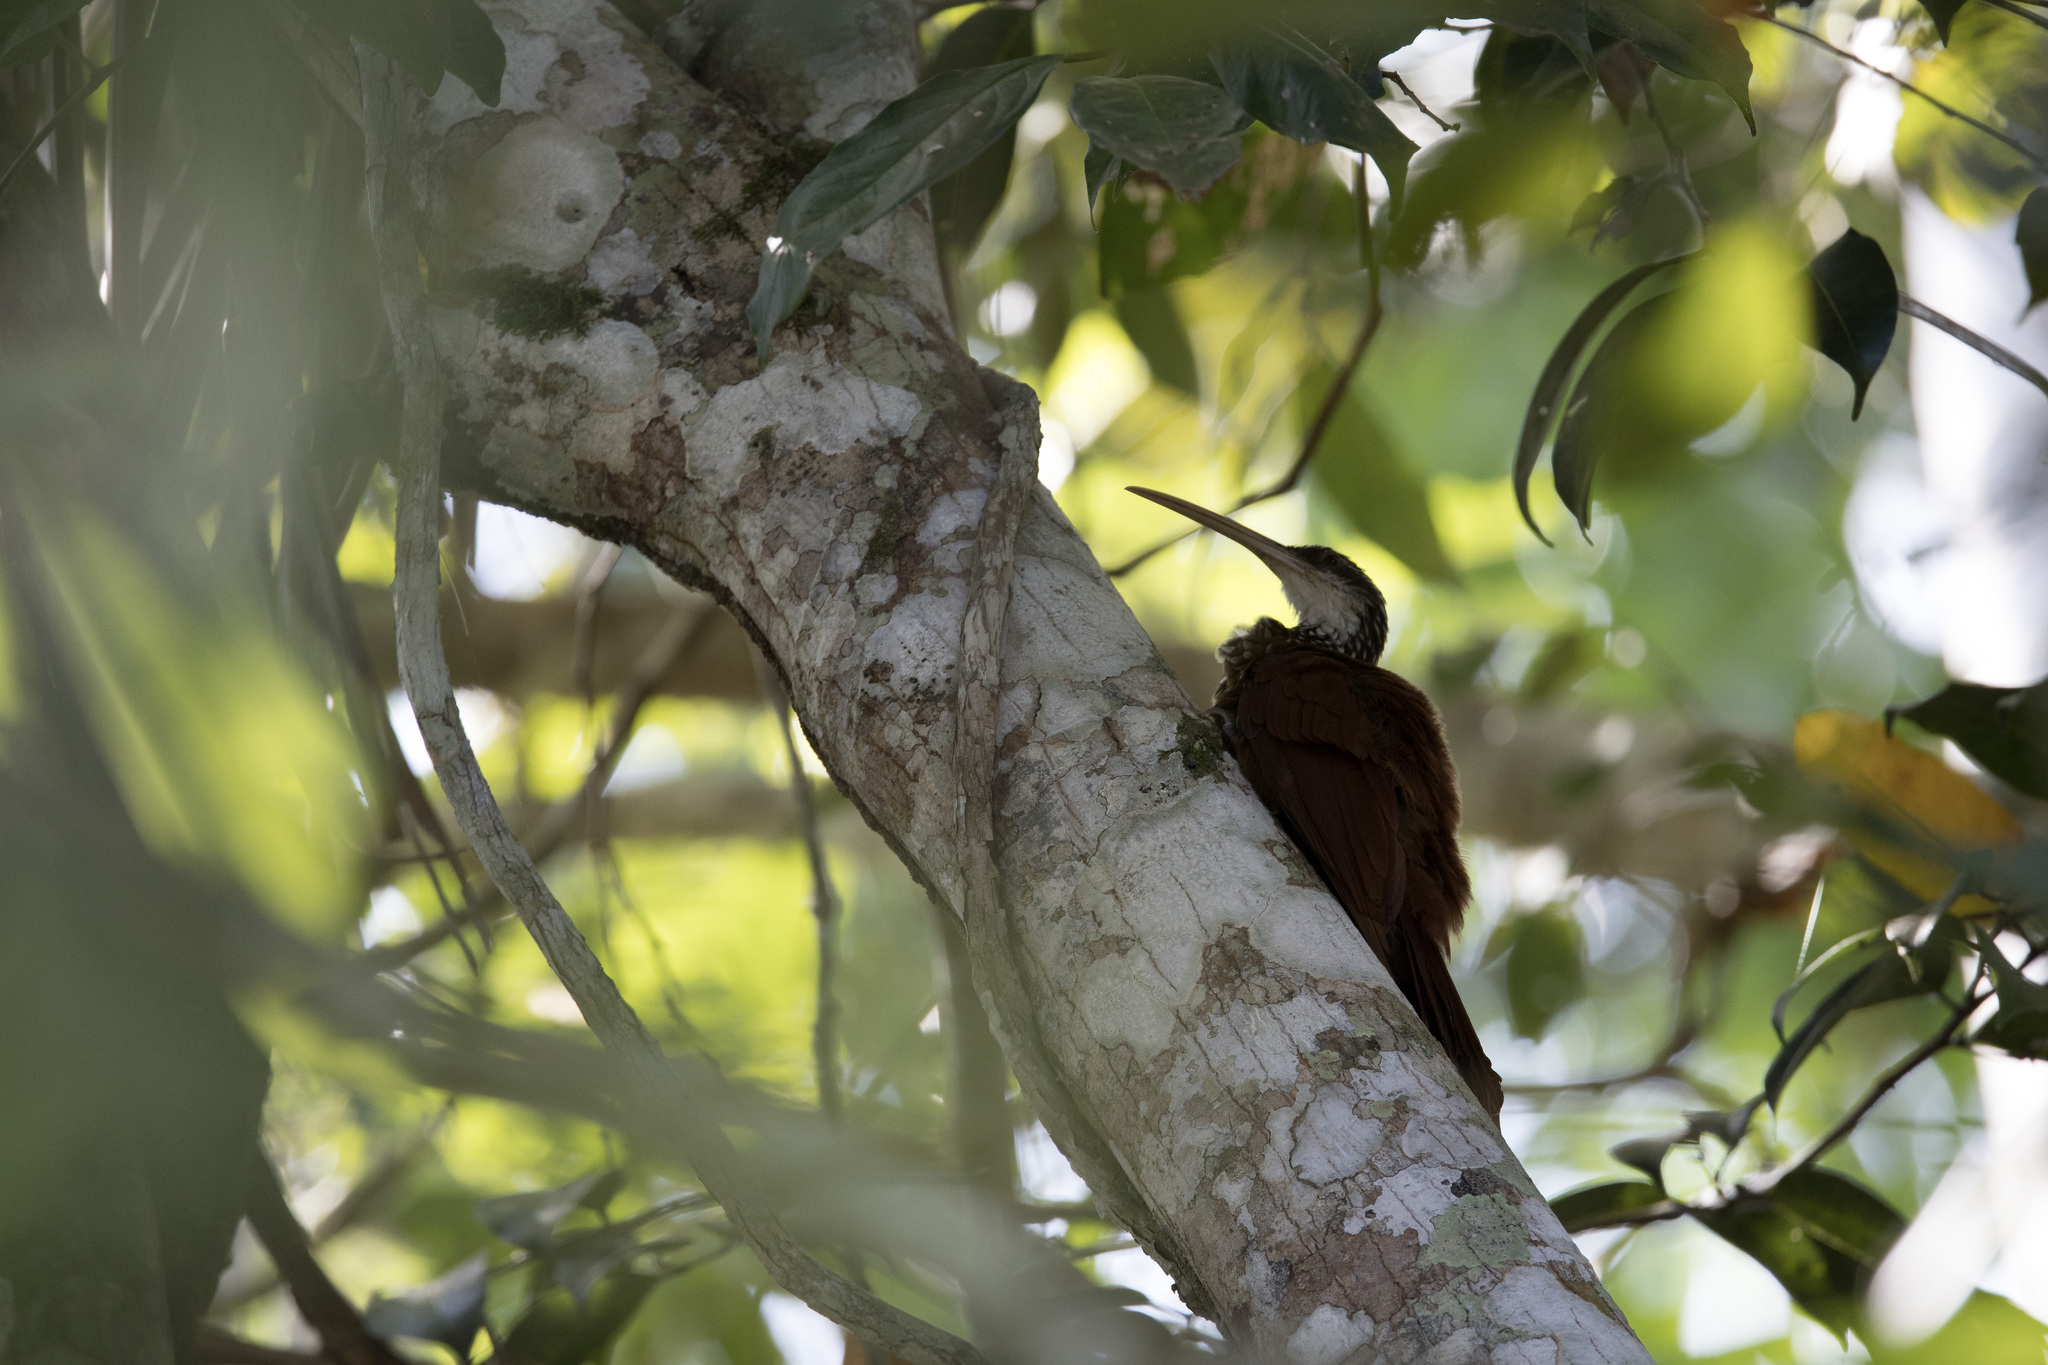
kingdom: Animalia
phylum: Chordata
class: Aves
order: Passeriformes
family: Furnariidae
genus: Nasica
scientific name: Nasica longirostris
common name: Long-billed woodcreeper
